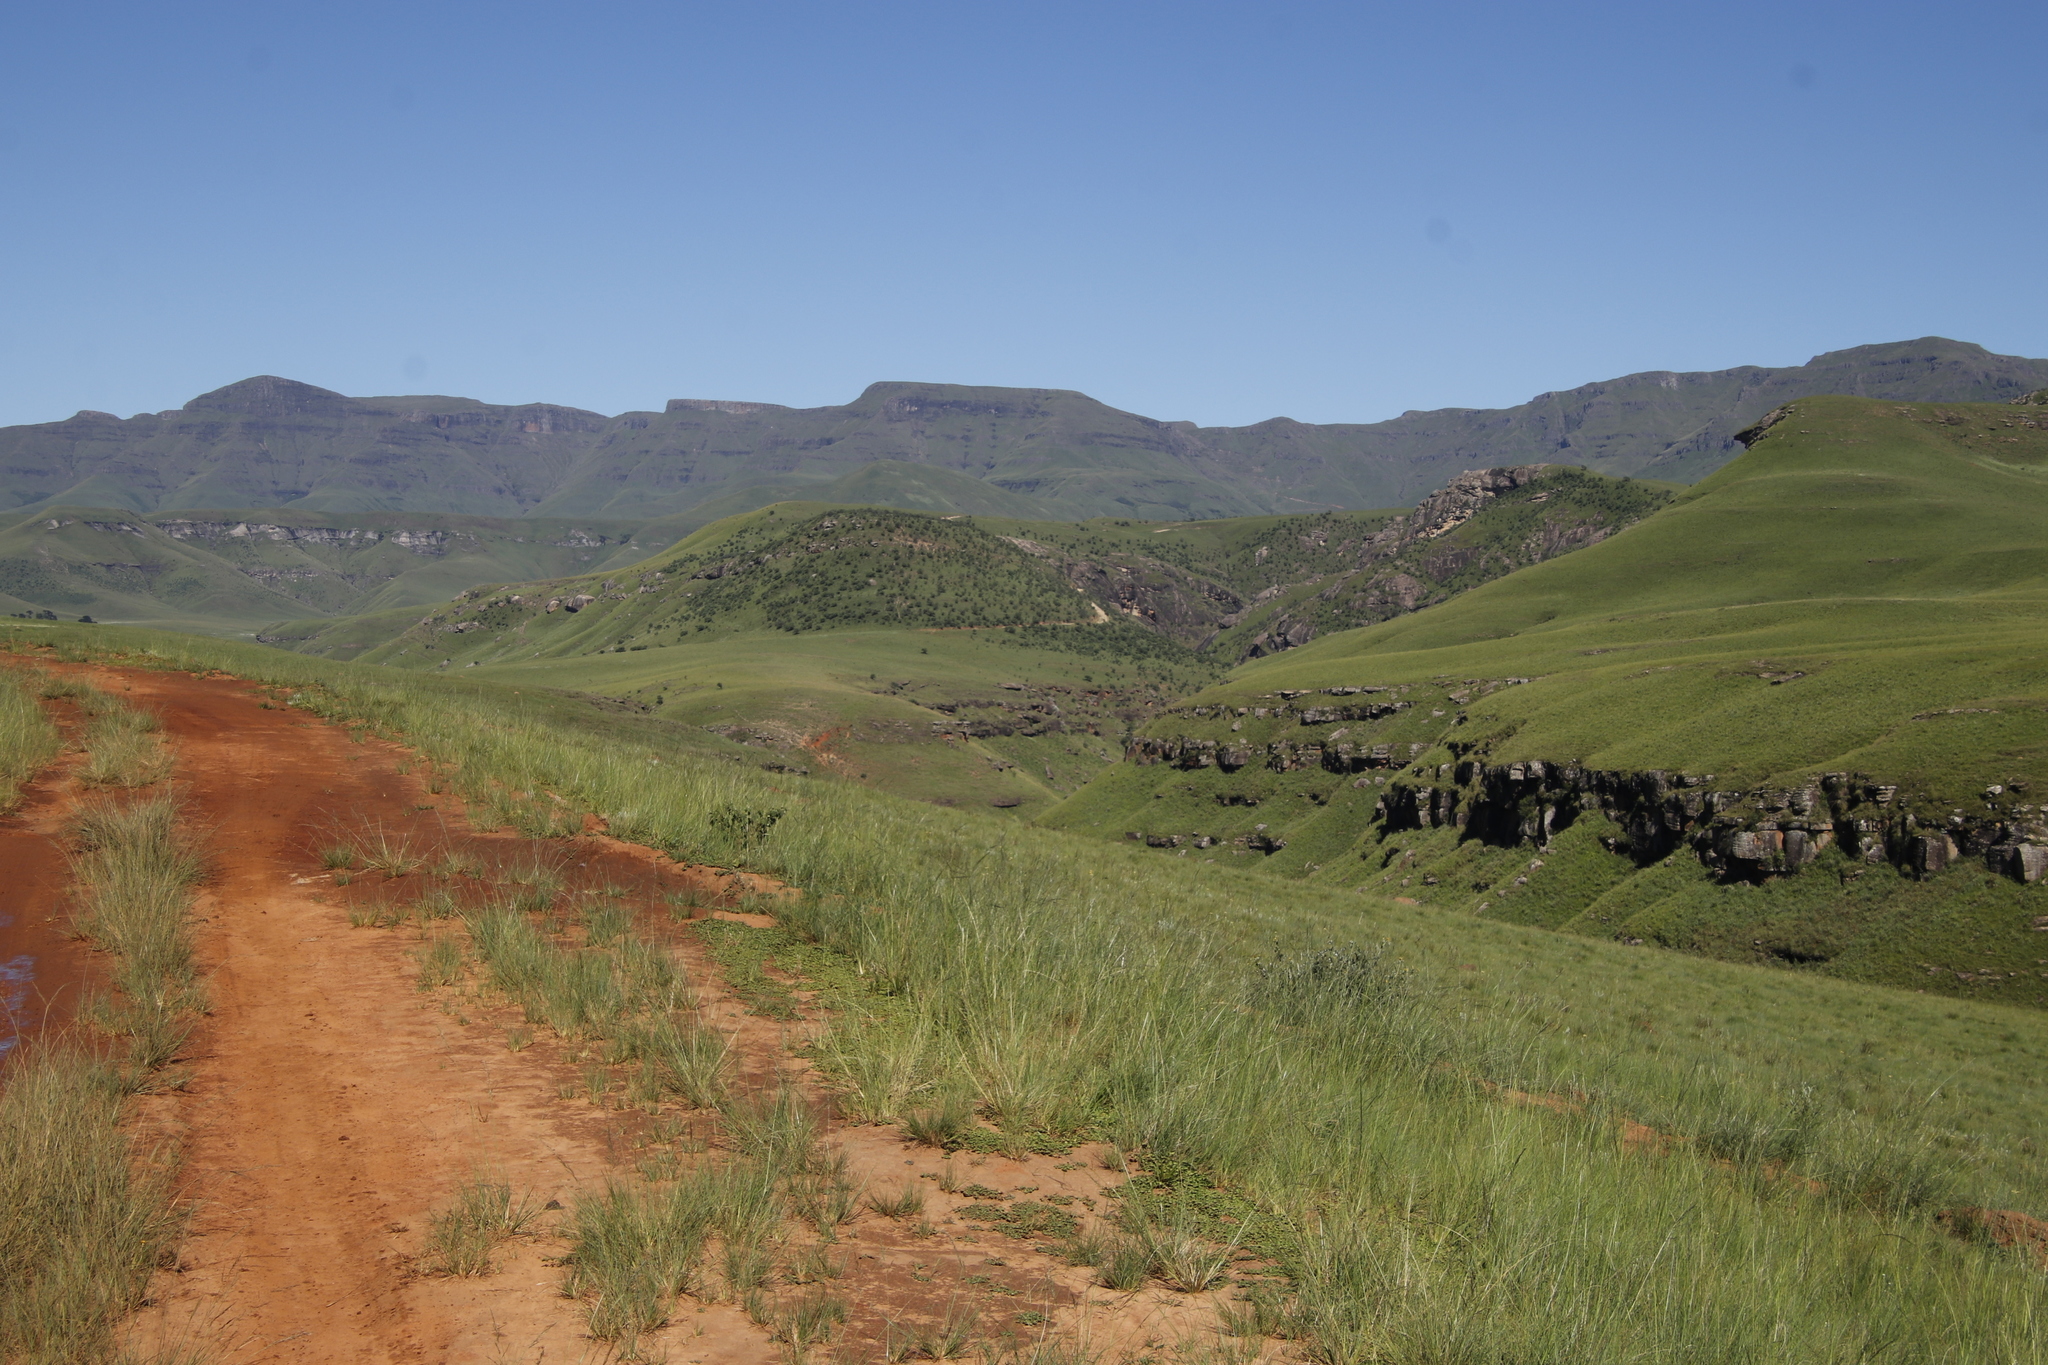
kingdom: Plantae
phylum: Tracheophyta
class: Magnoliopsida
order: Proteales
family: Proteaceae
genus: Protea
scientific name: Protea caffra
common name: Common sugarbush
